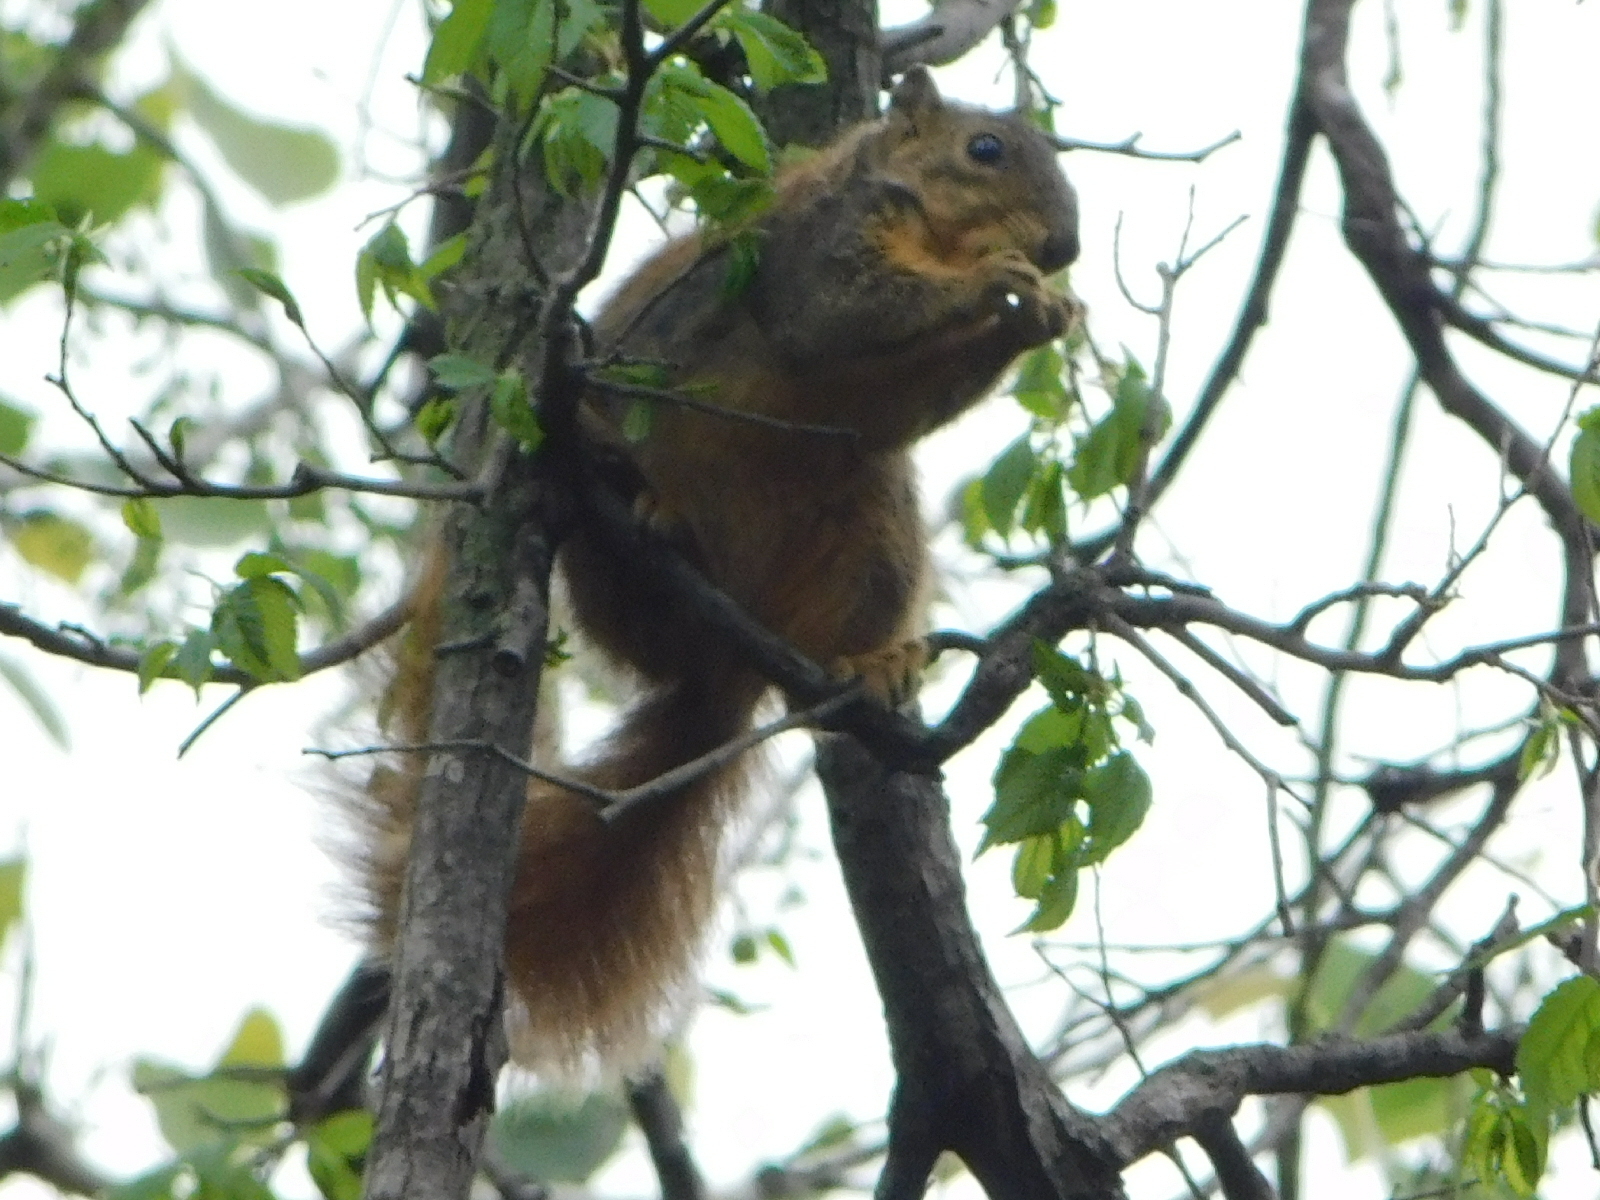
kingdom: Animalia
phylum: Chordata
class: Mammalia
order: Rodentia
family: Sciuridae
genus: Sciurus
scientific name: Sciurus niger
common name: Fox squirrel
